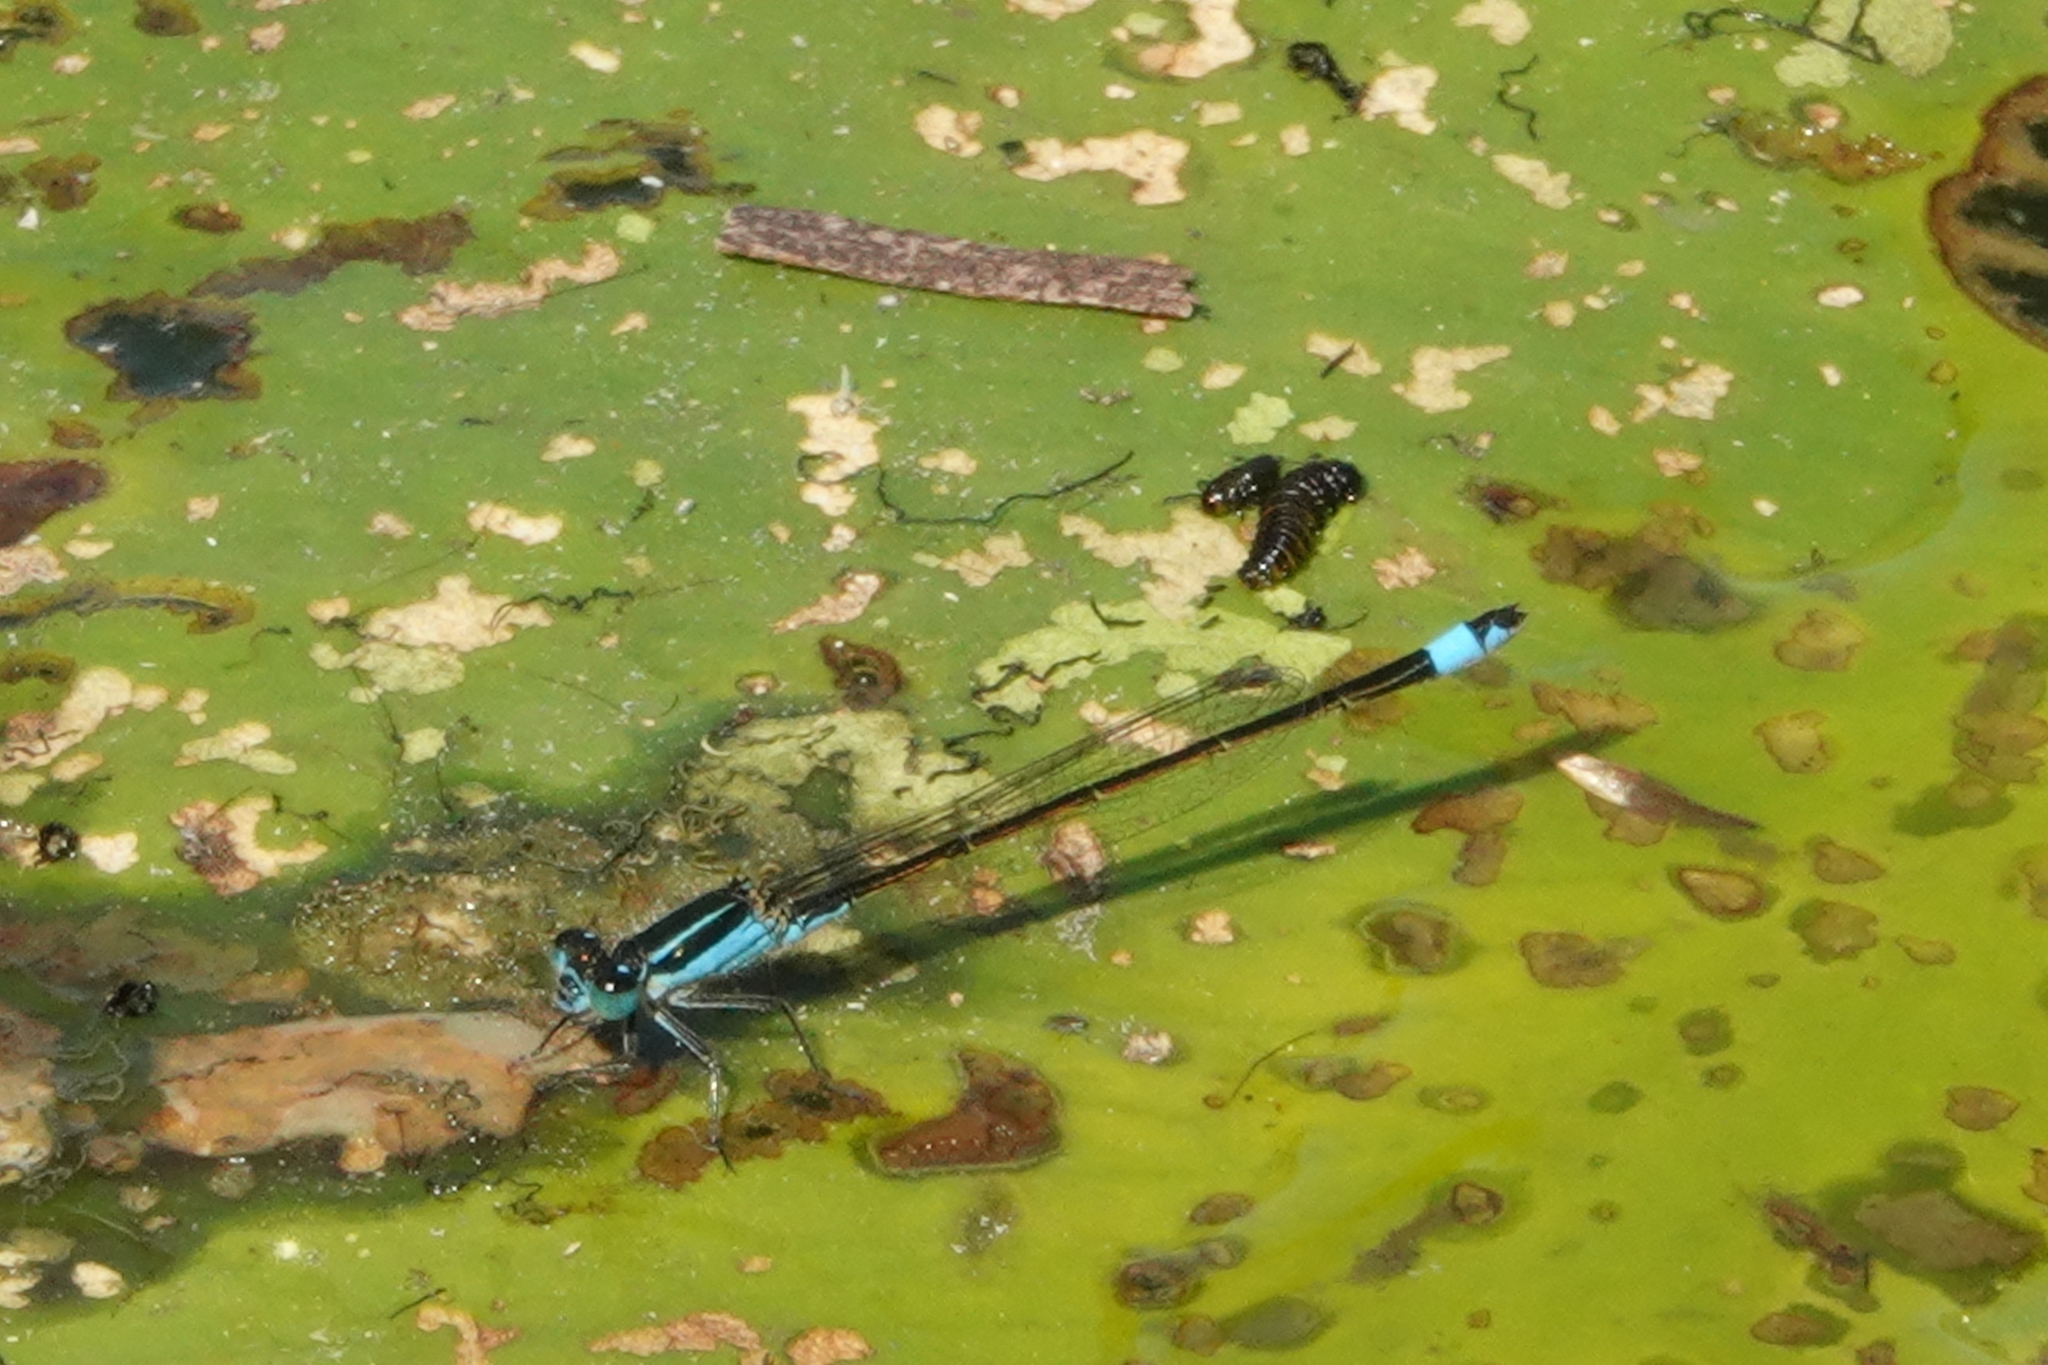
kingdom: Animalia
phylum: Arthropoda
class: Insecta
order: Odonata
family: Coenagrionidae
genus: Ischnura
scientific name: Ischnura ramburii
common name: Rambur's forktail
